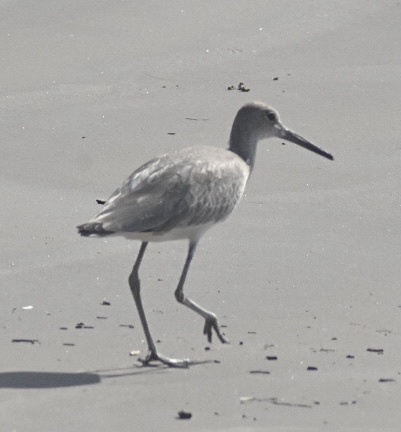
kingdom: Animalia
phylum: Chordata
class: Aves
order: Charadriiformes
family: Scolopacidae
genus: Tringa
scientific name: Tringa semipalmata
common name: Willet
